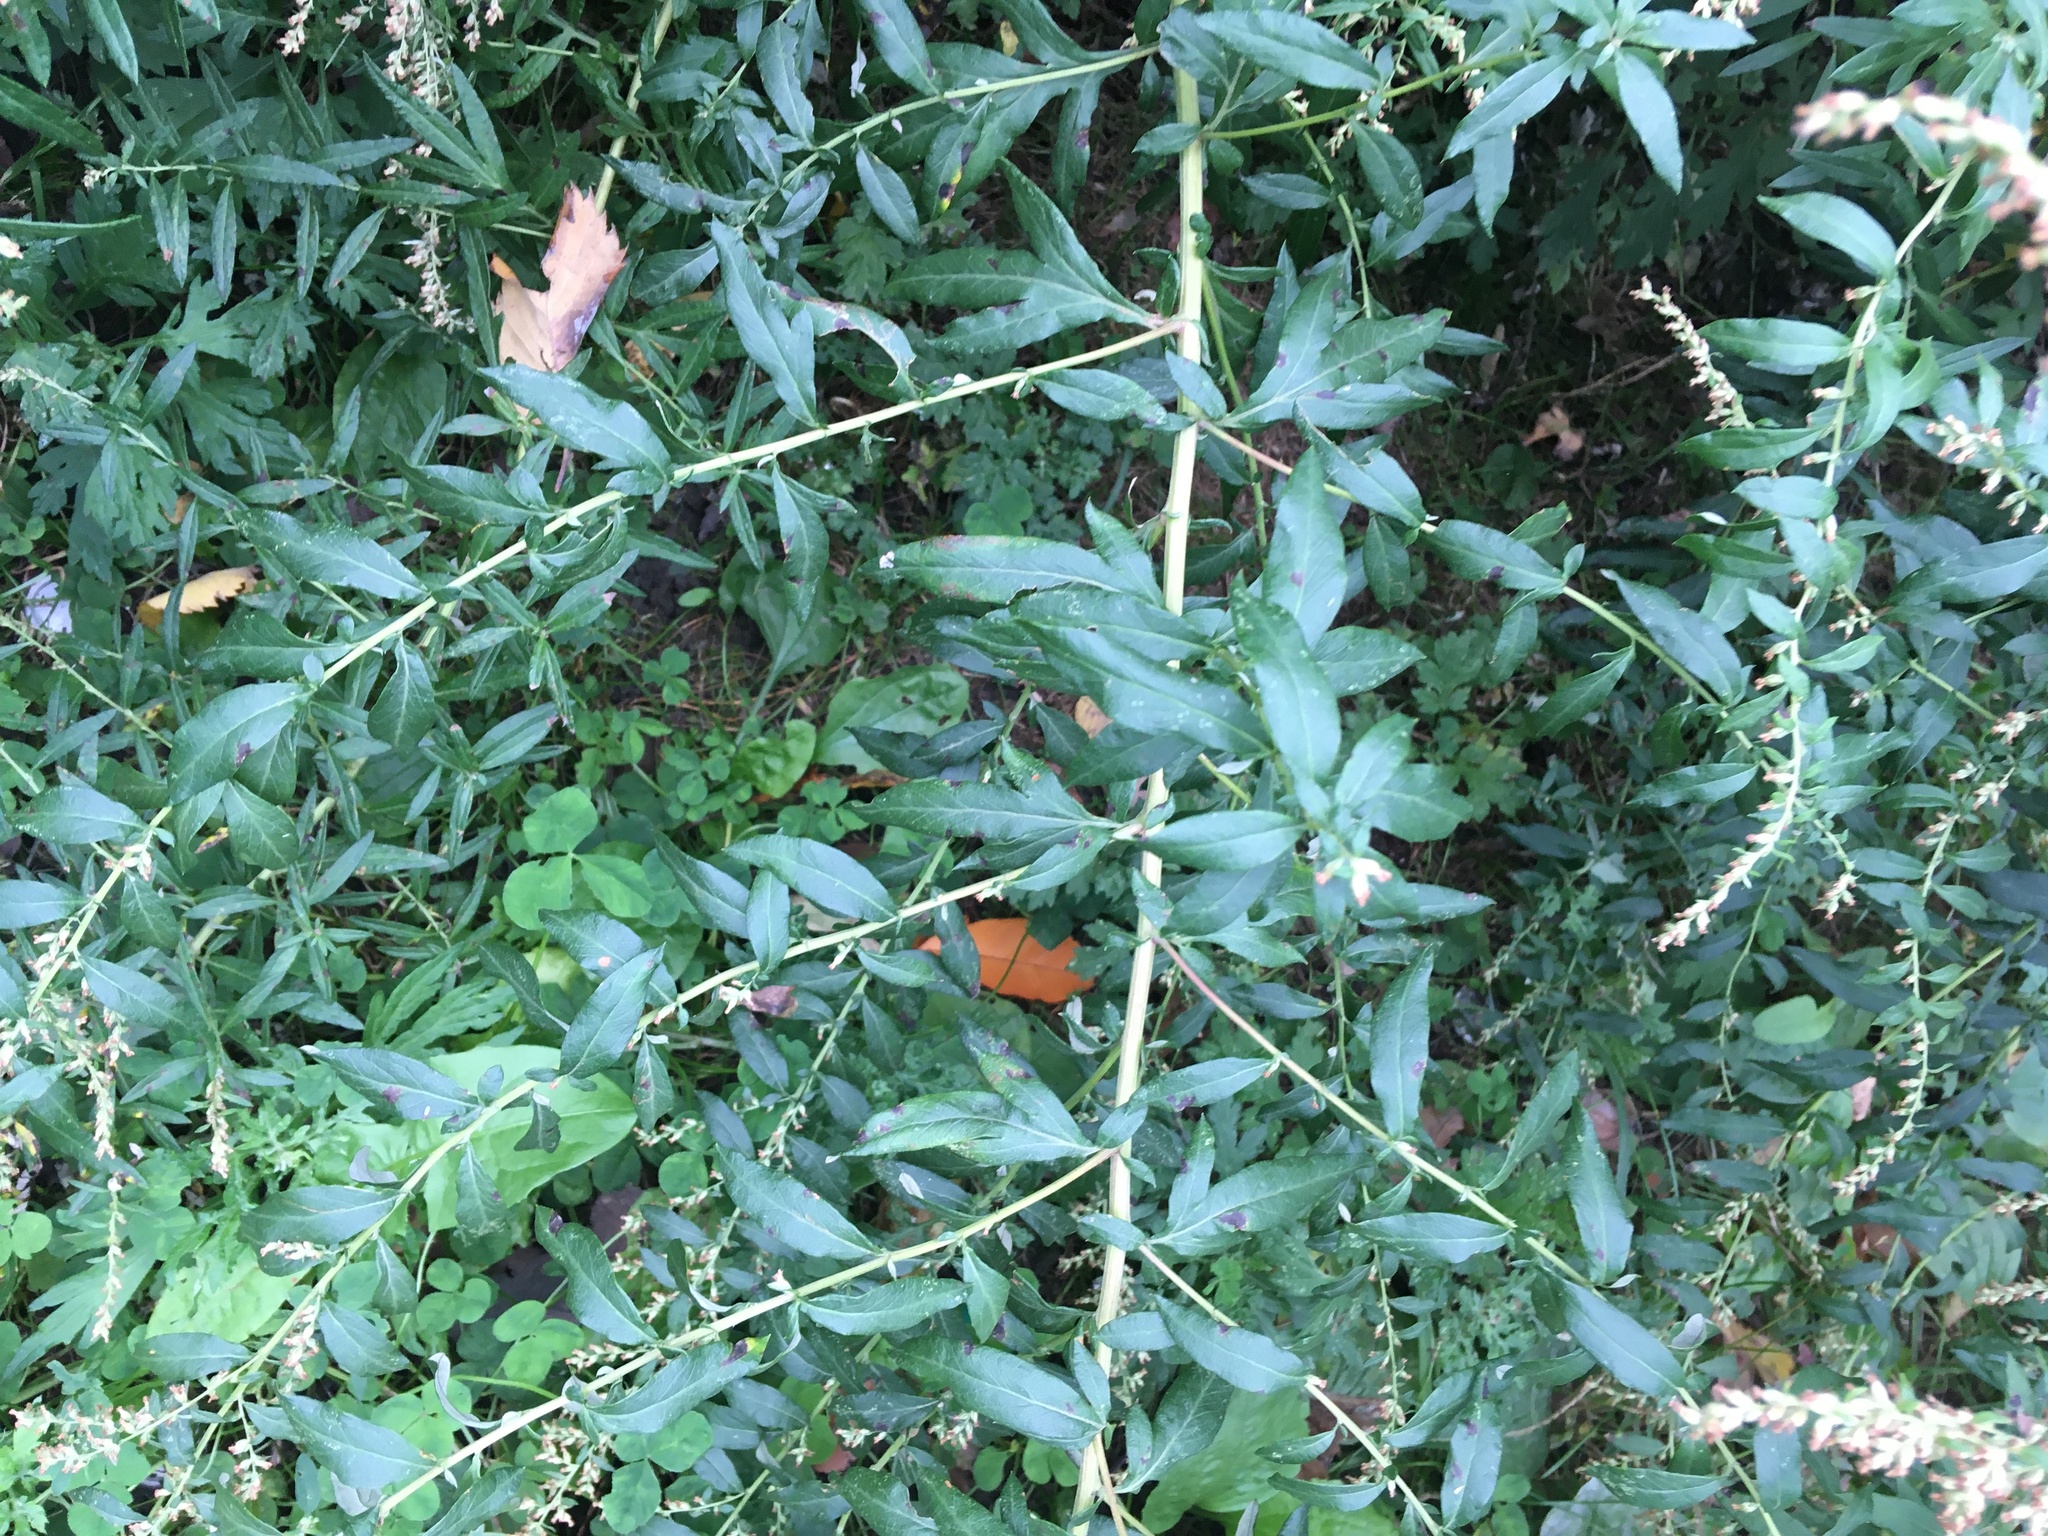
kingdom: Plantae
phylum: Tracheophyta
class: Magnoliopsida
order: Asterales
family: Asteraceae
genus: Artemisia
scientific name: Artemisia vulgaris
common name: Mugwort
